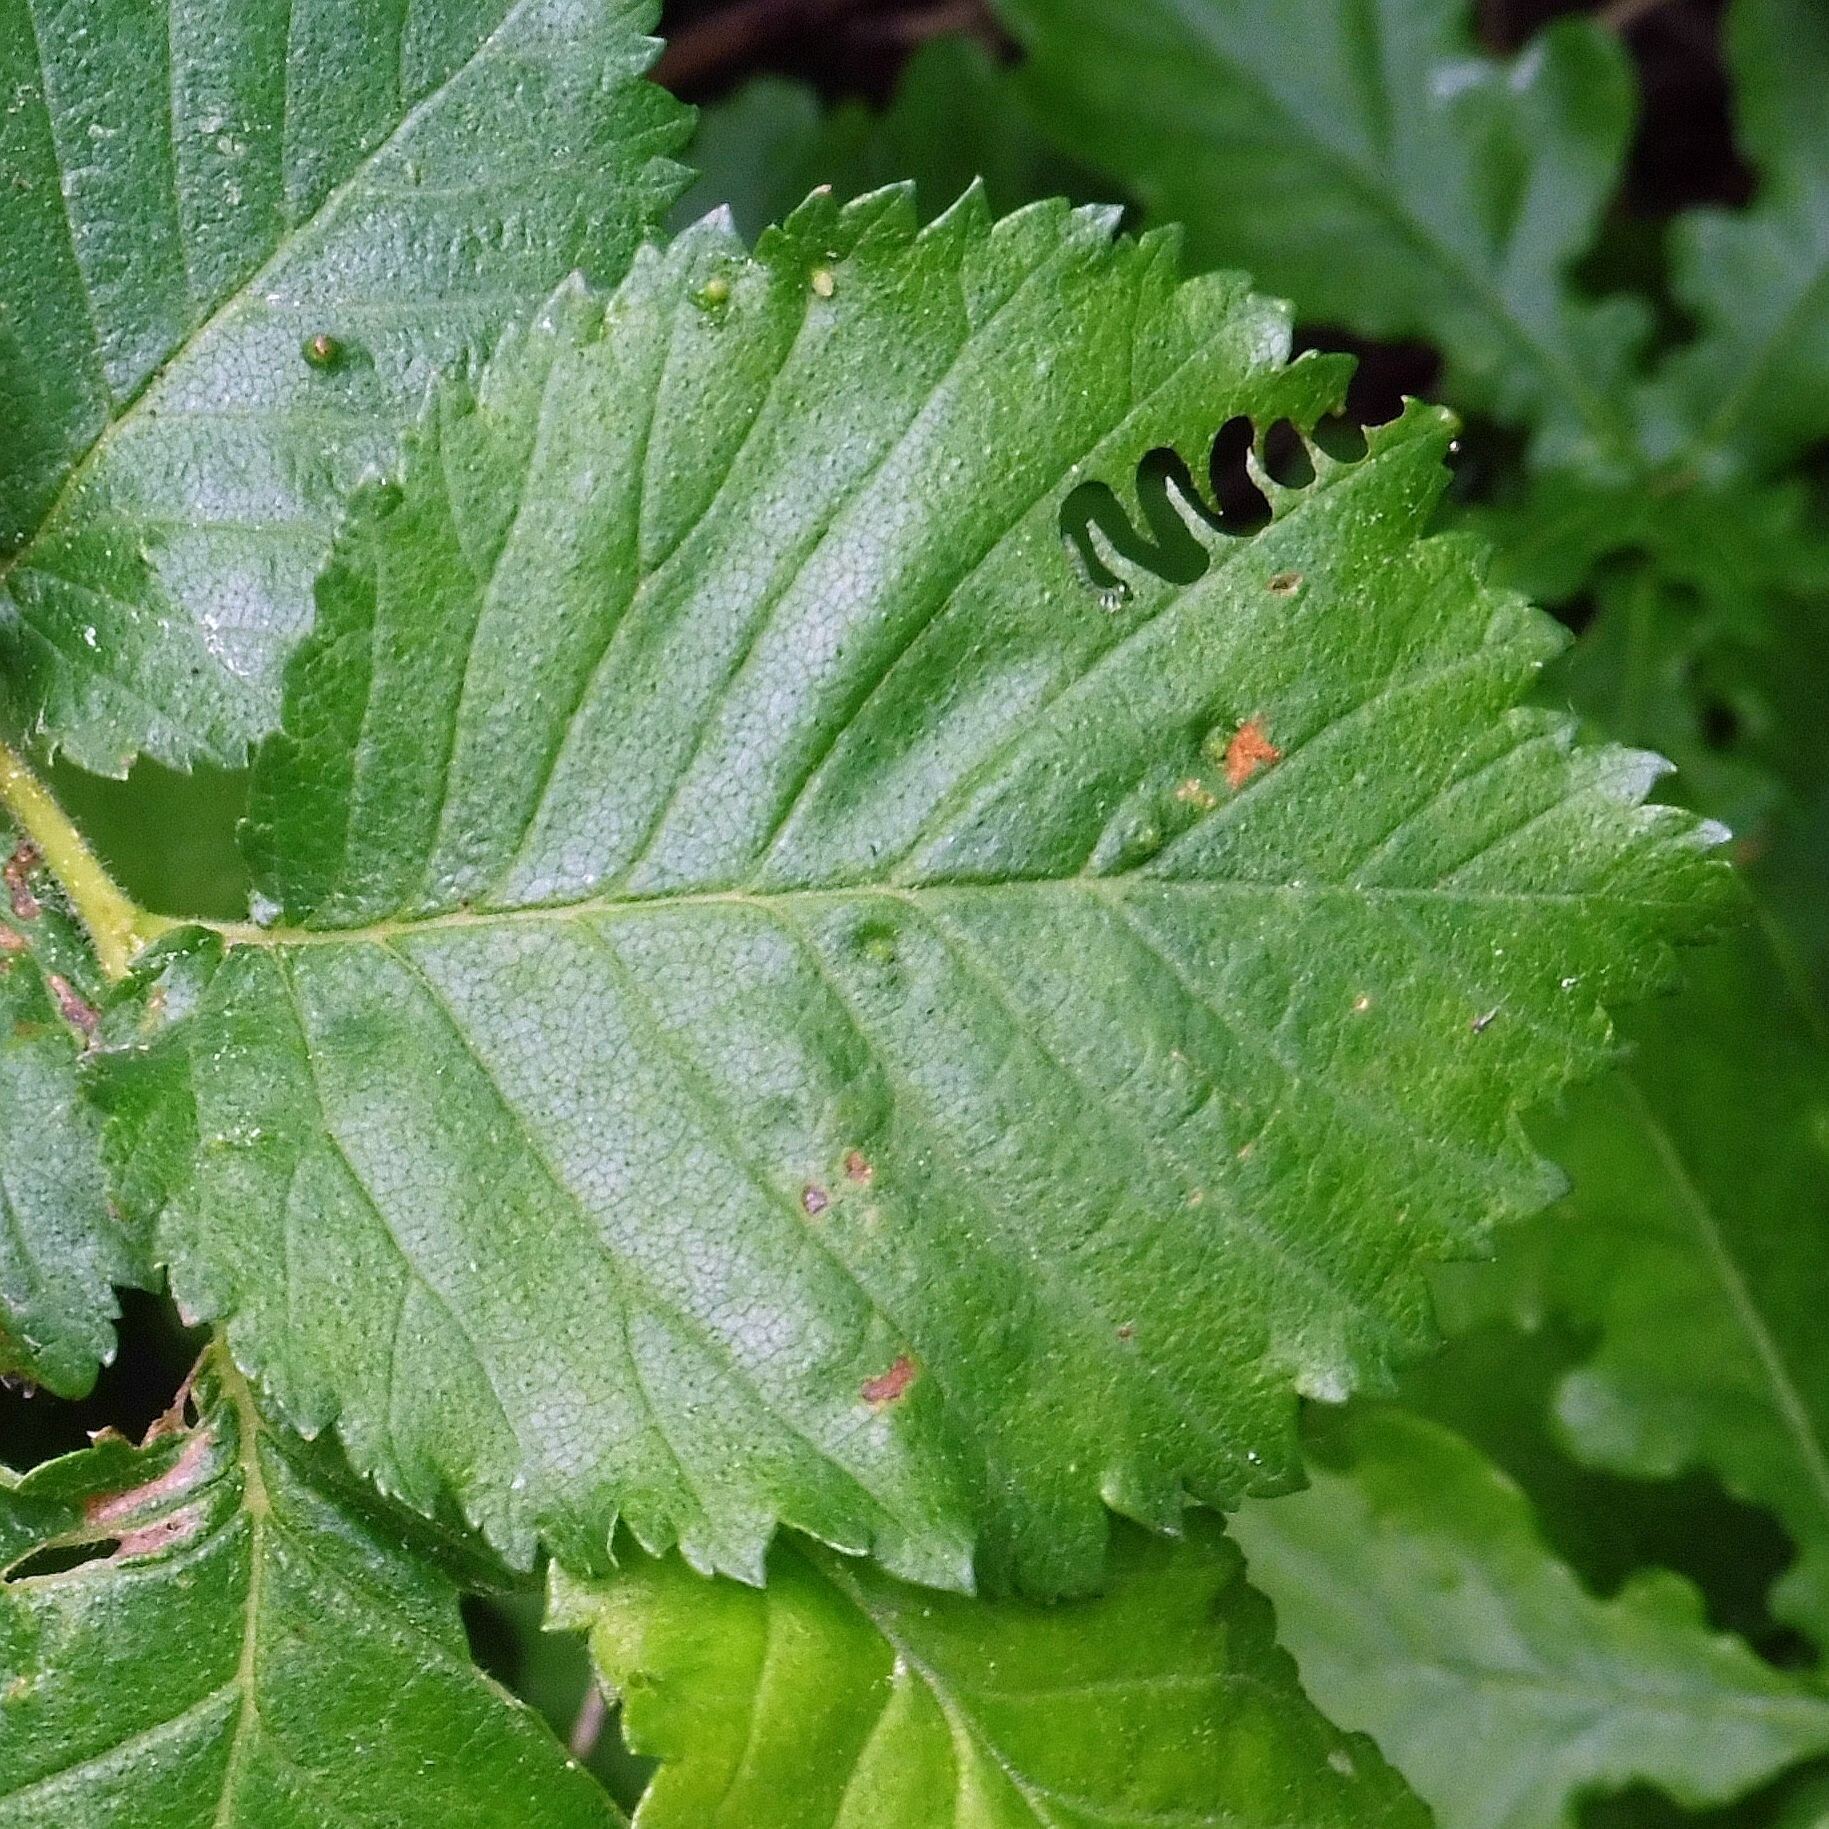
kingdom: Animalia
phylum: Arthropoda
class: Insecta
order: Hymenoptera
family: Argidae
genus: Aproceros
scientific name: Aproceros leucopoda
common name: Zig-zag elm sawfly
